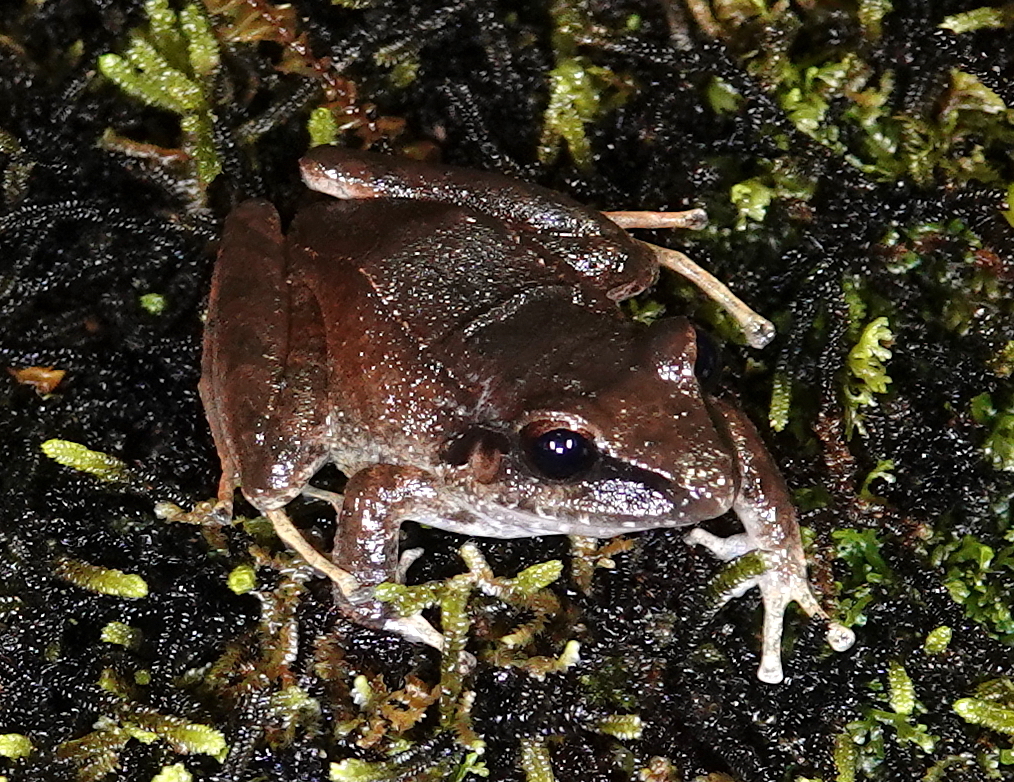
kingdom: Animalia
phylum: Chordata
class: Amphibia
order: Anura
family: Craugastoridae
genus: Pristimantis
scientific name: Pristimantis achatinus
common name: Cachabi robber frog
